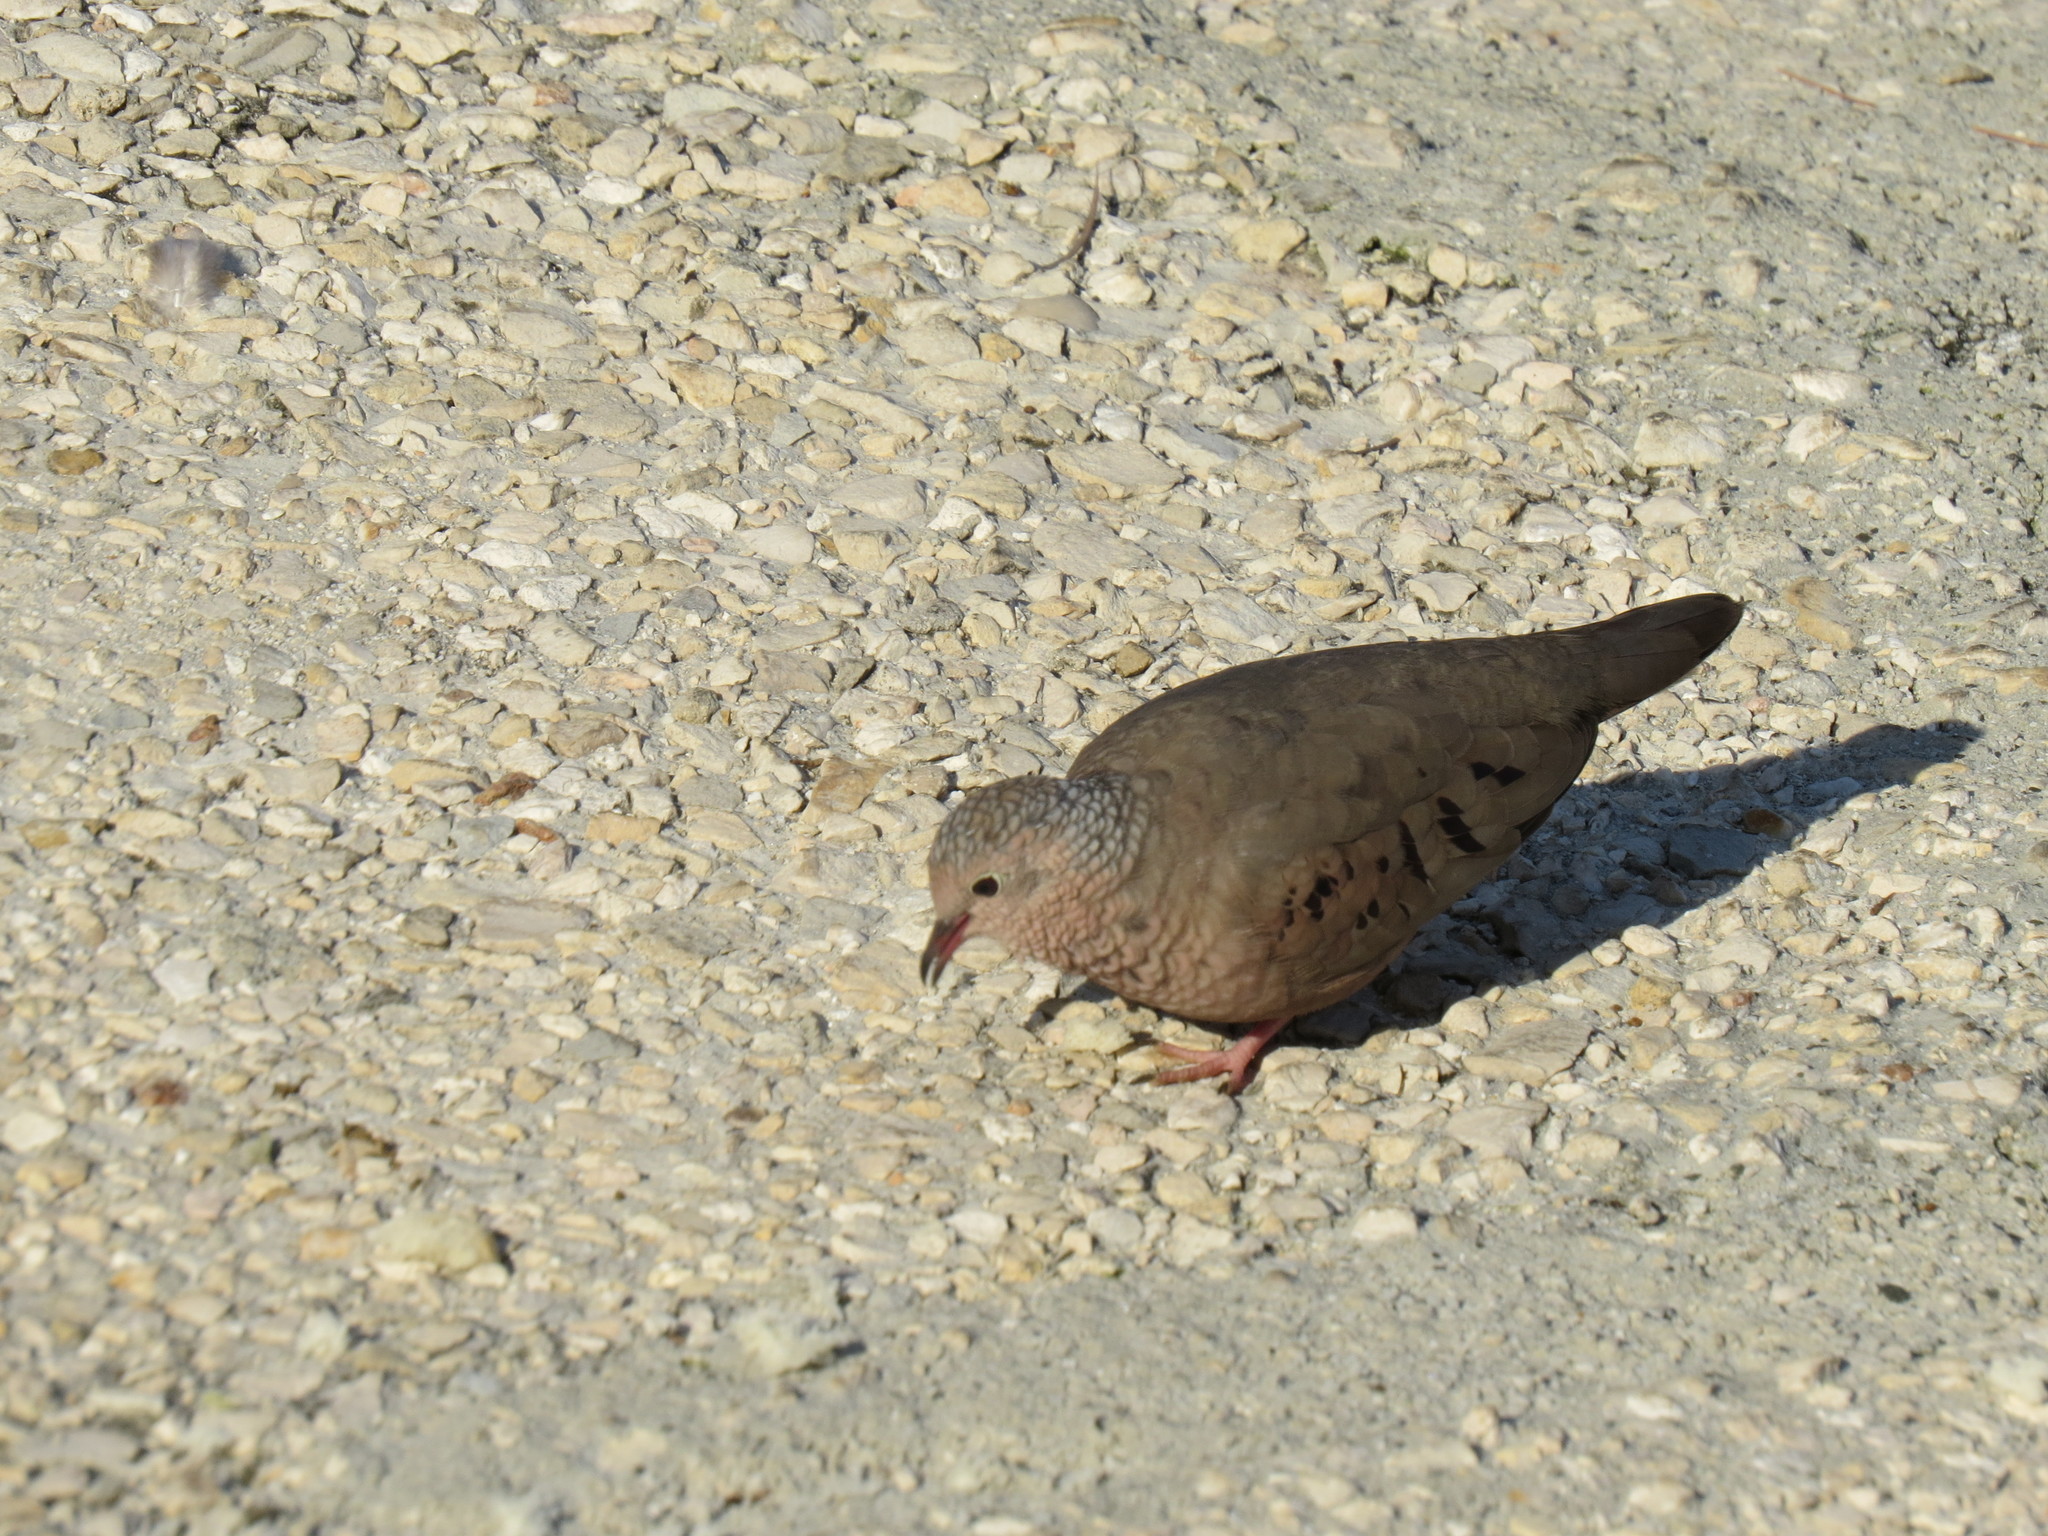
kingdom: Animalia
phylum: Chordata
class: Aves
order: Columbiformes
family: Columbidae
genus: Columbina
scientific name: Columbina passerina
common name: Common ground-dove
